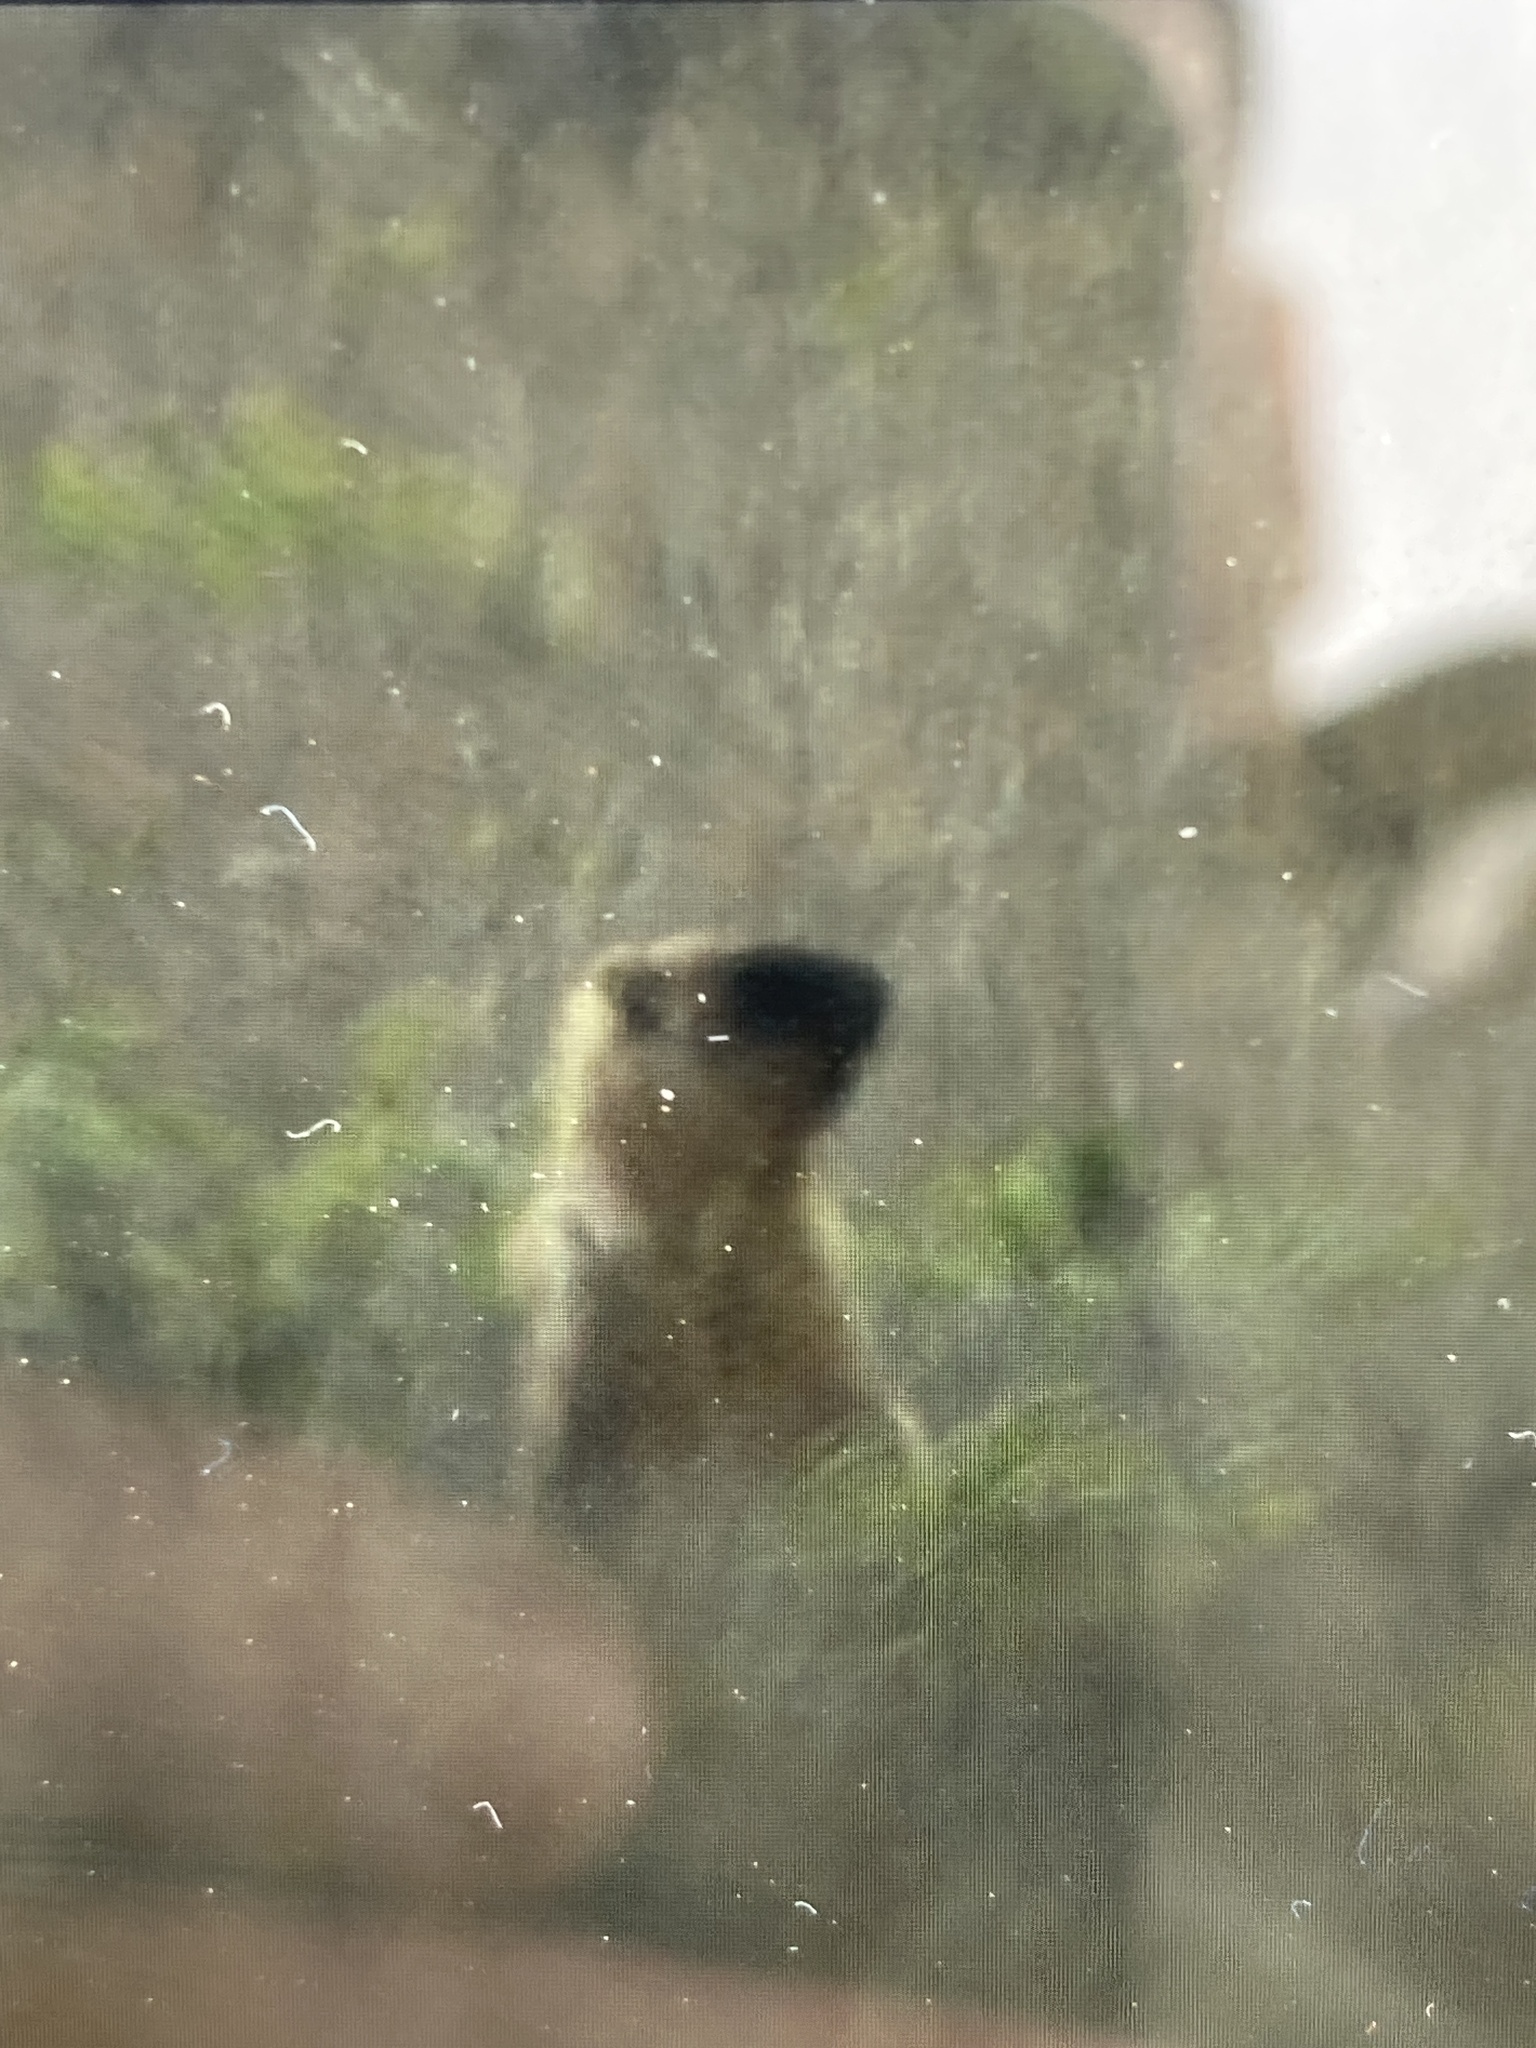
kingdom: Animalia
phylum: Chordata
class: Mammalia
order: Rodentia
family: Sciuridae
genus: Marmota
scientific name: Marmota bobak
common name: Bobak marmot
